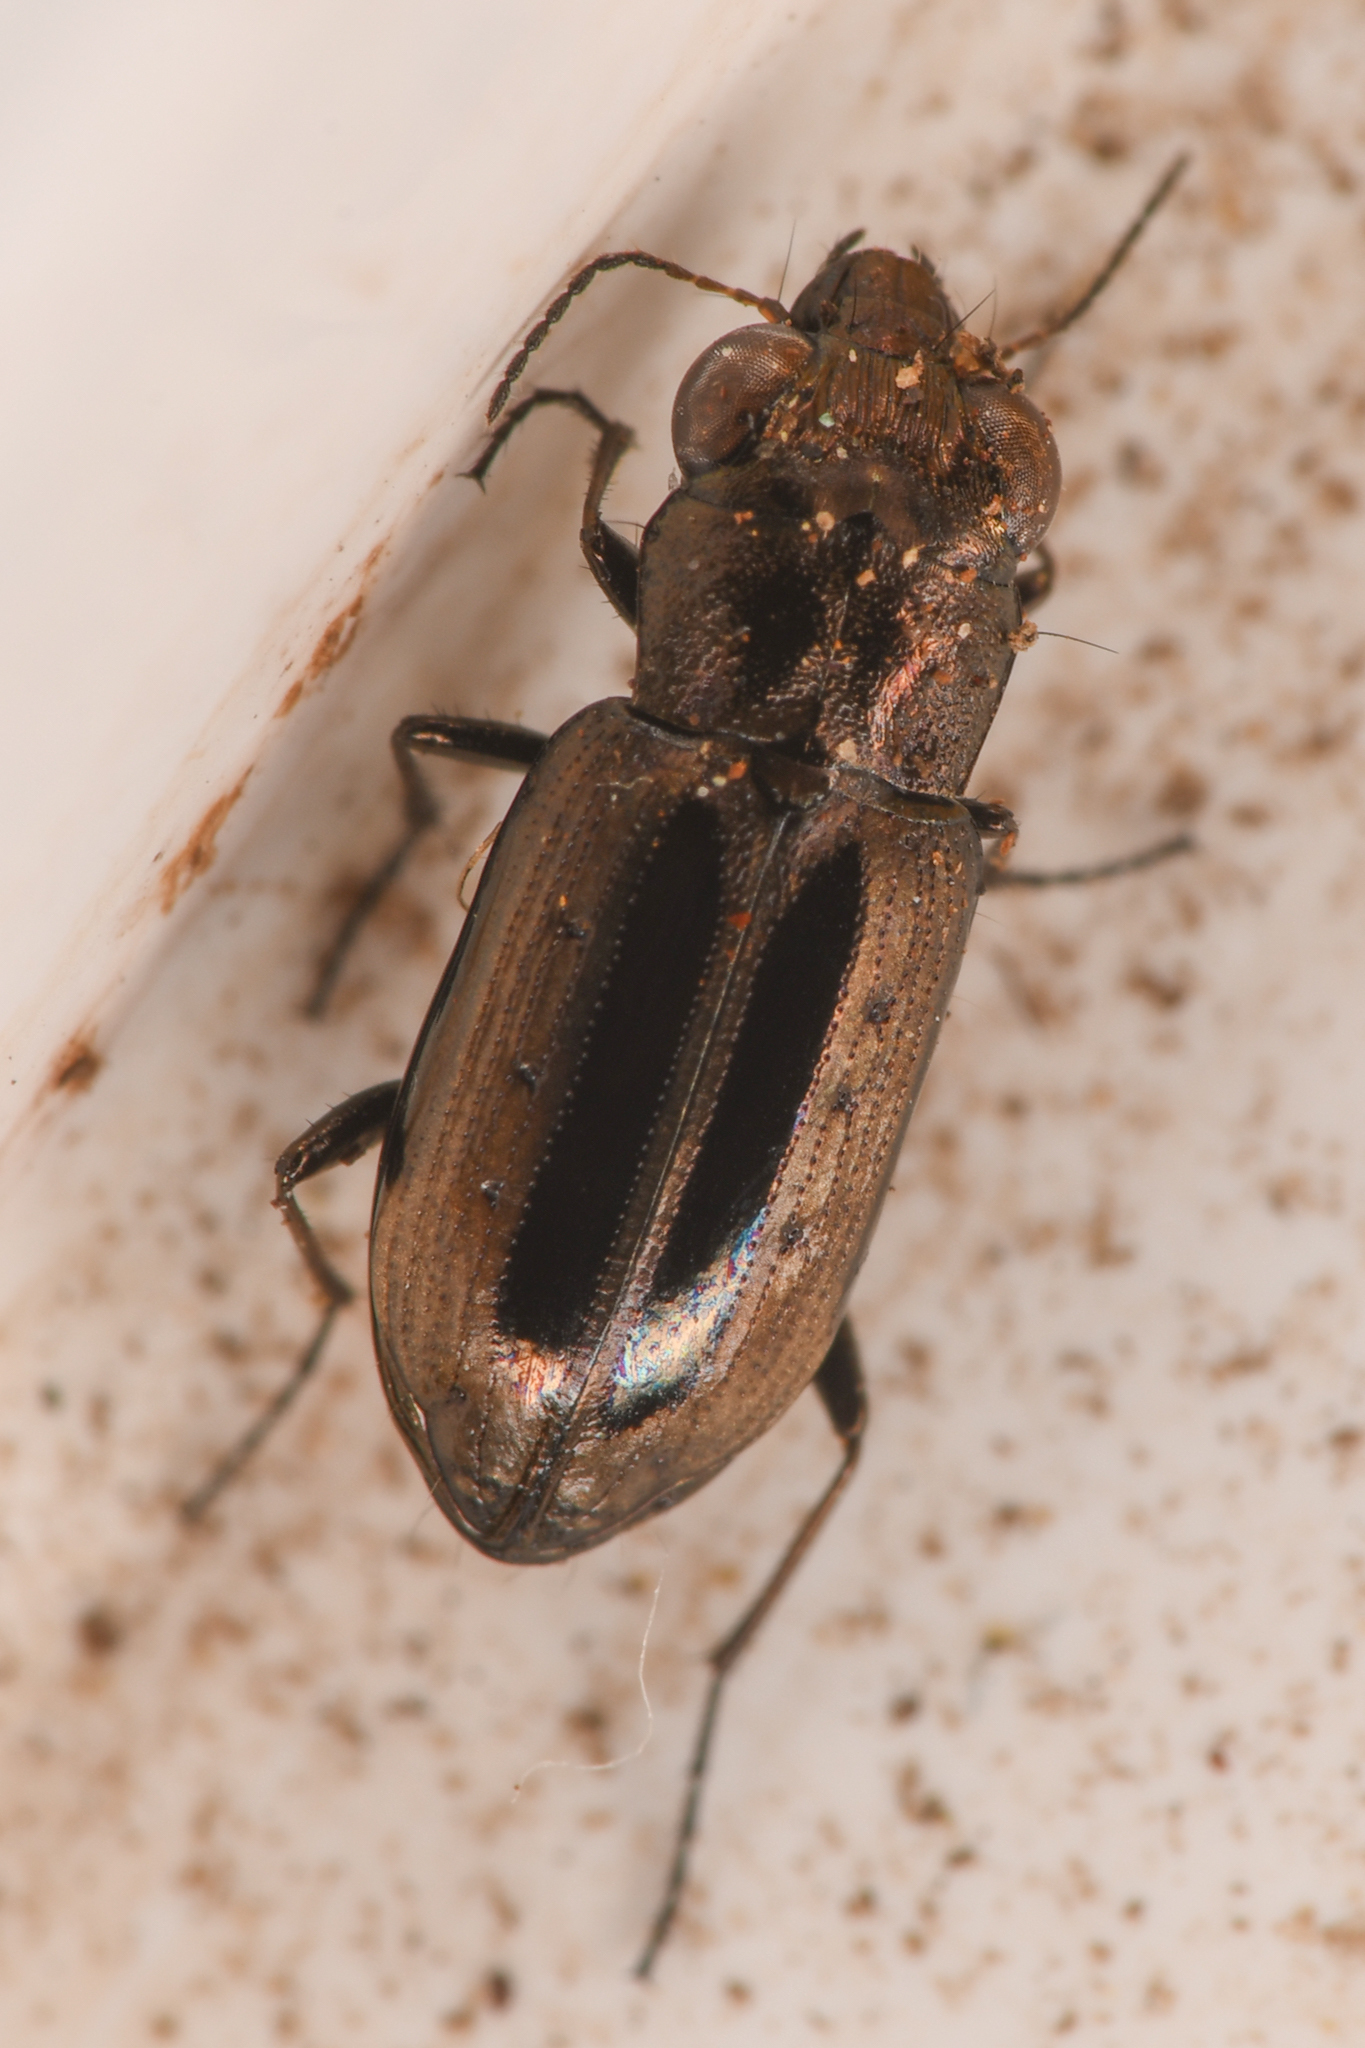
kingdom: Animalia
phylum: Arthropoda
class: Insecta
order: Coleoptera
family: Carabidae
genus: Notiophilus
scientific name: Notiophilus semiopacus
